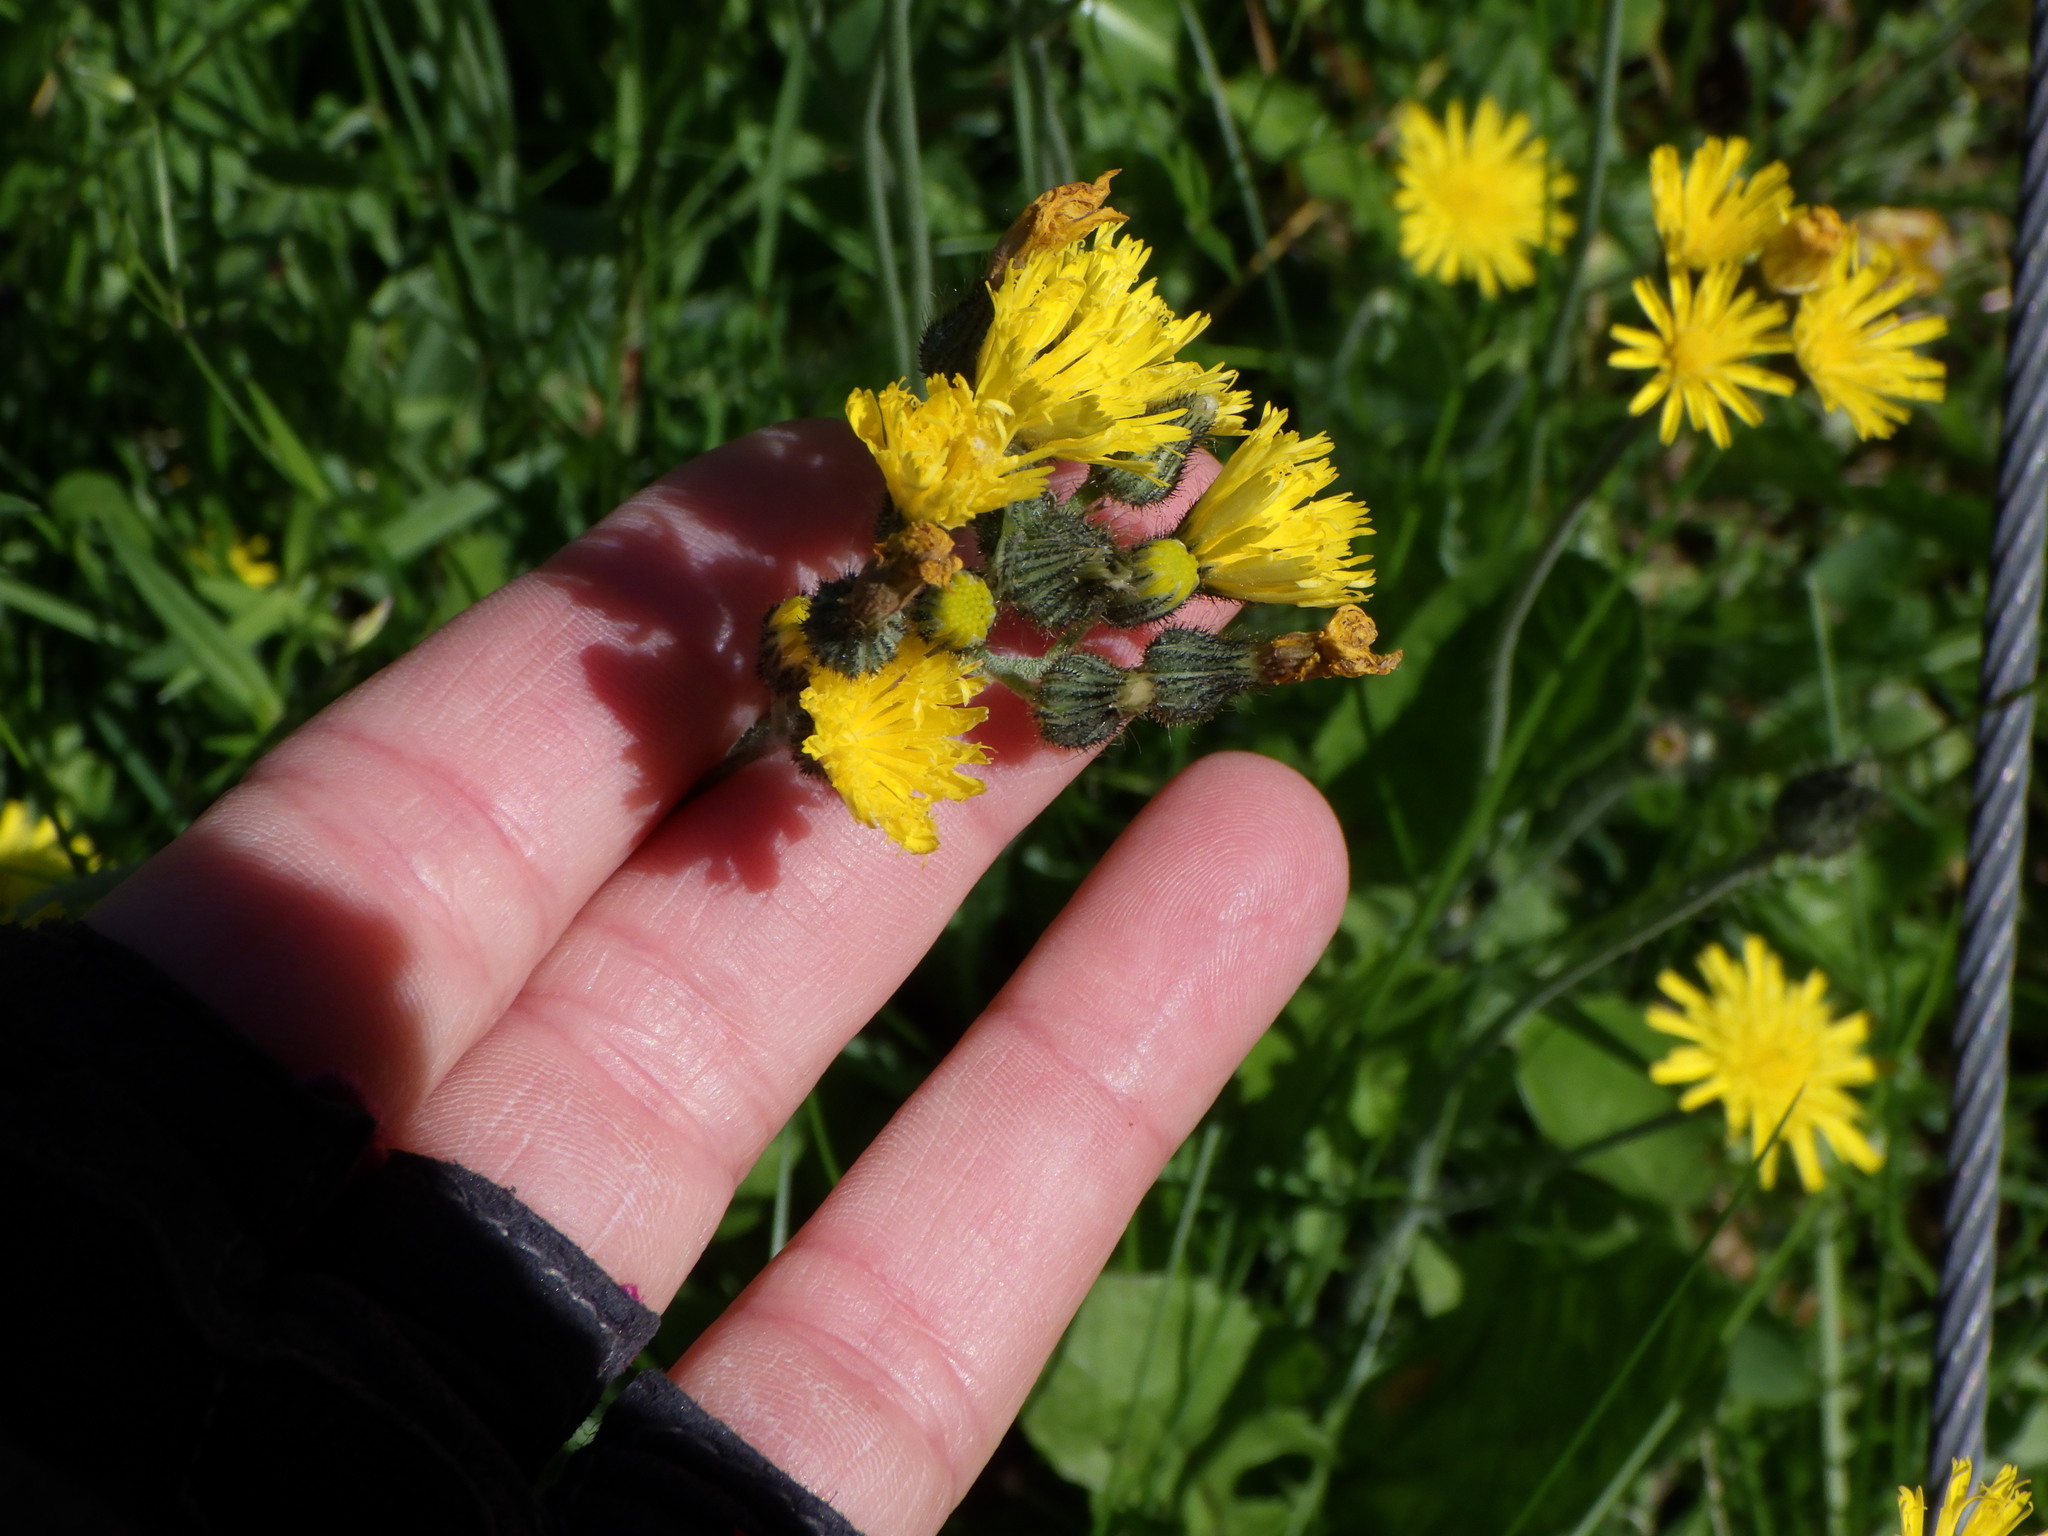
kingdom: Plantae
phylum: Tracheophyta
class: Magnoliopsida
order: Asterales
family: Asteraceae
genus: Pilosella
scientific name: Pilosella caespitosa
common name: Yellow fox-and-cubs
